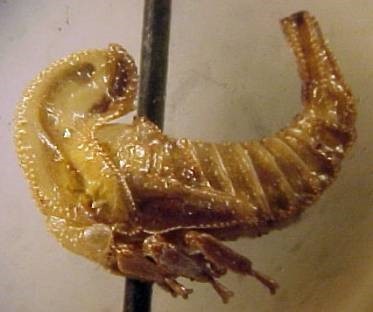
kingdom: Animalia
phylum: Arthropoda
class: Insecta
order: Hemiptera
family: Membracidae
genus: Cladonota
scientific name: Cladonota
